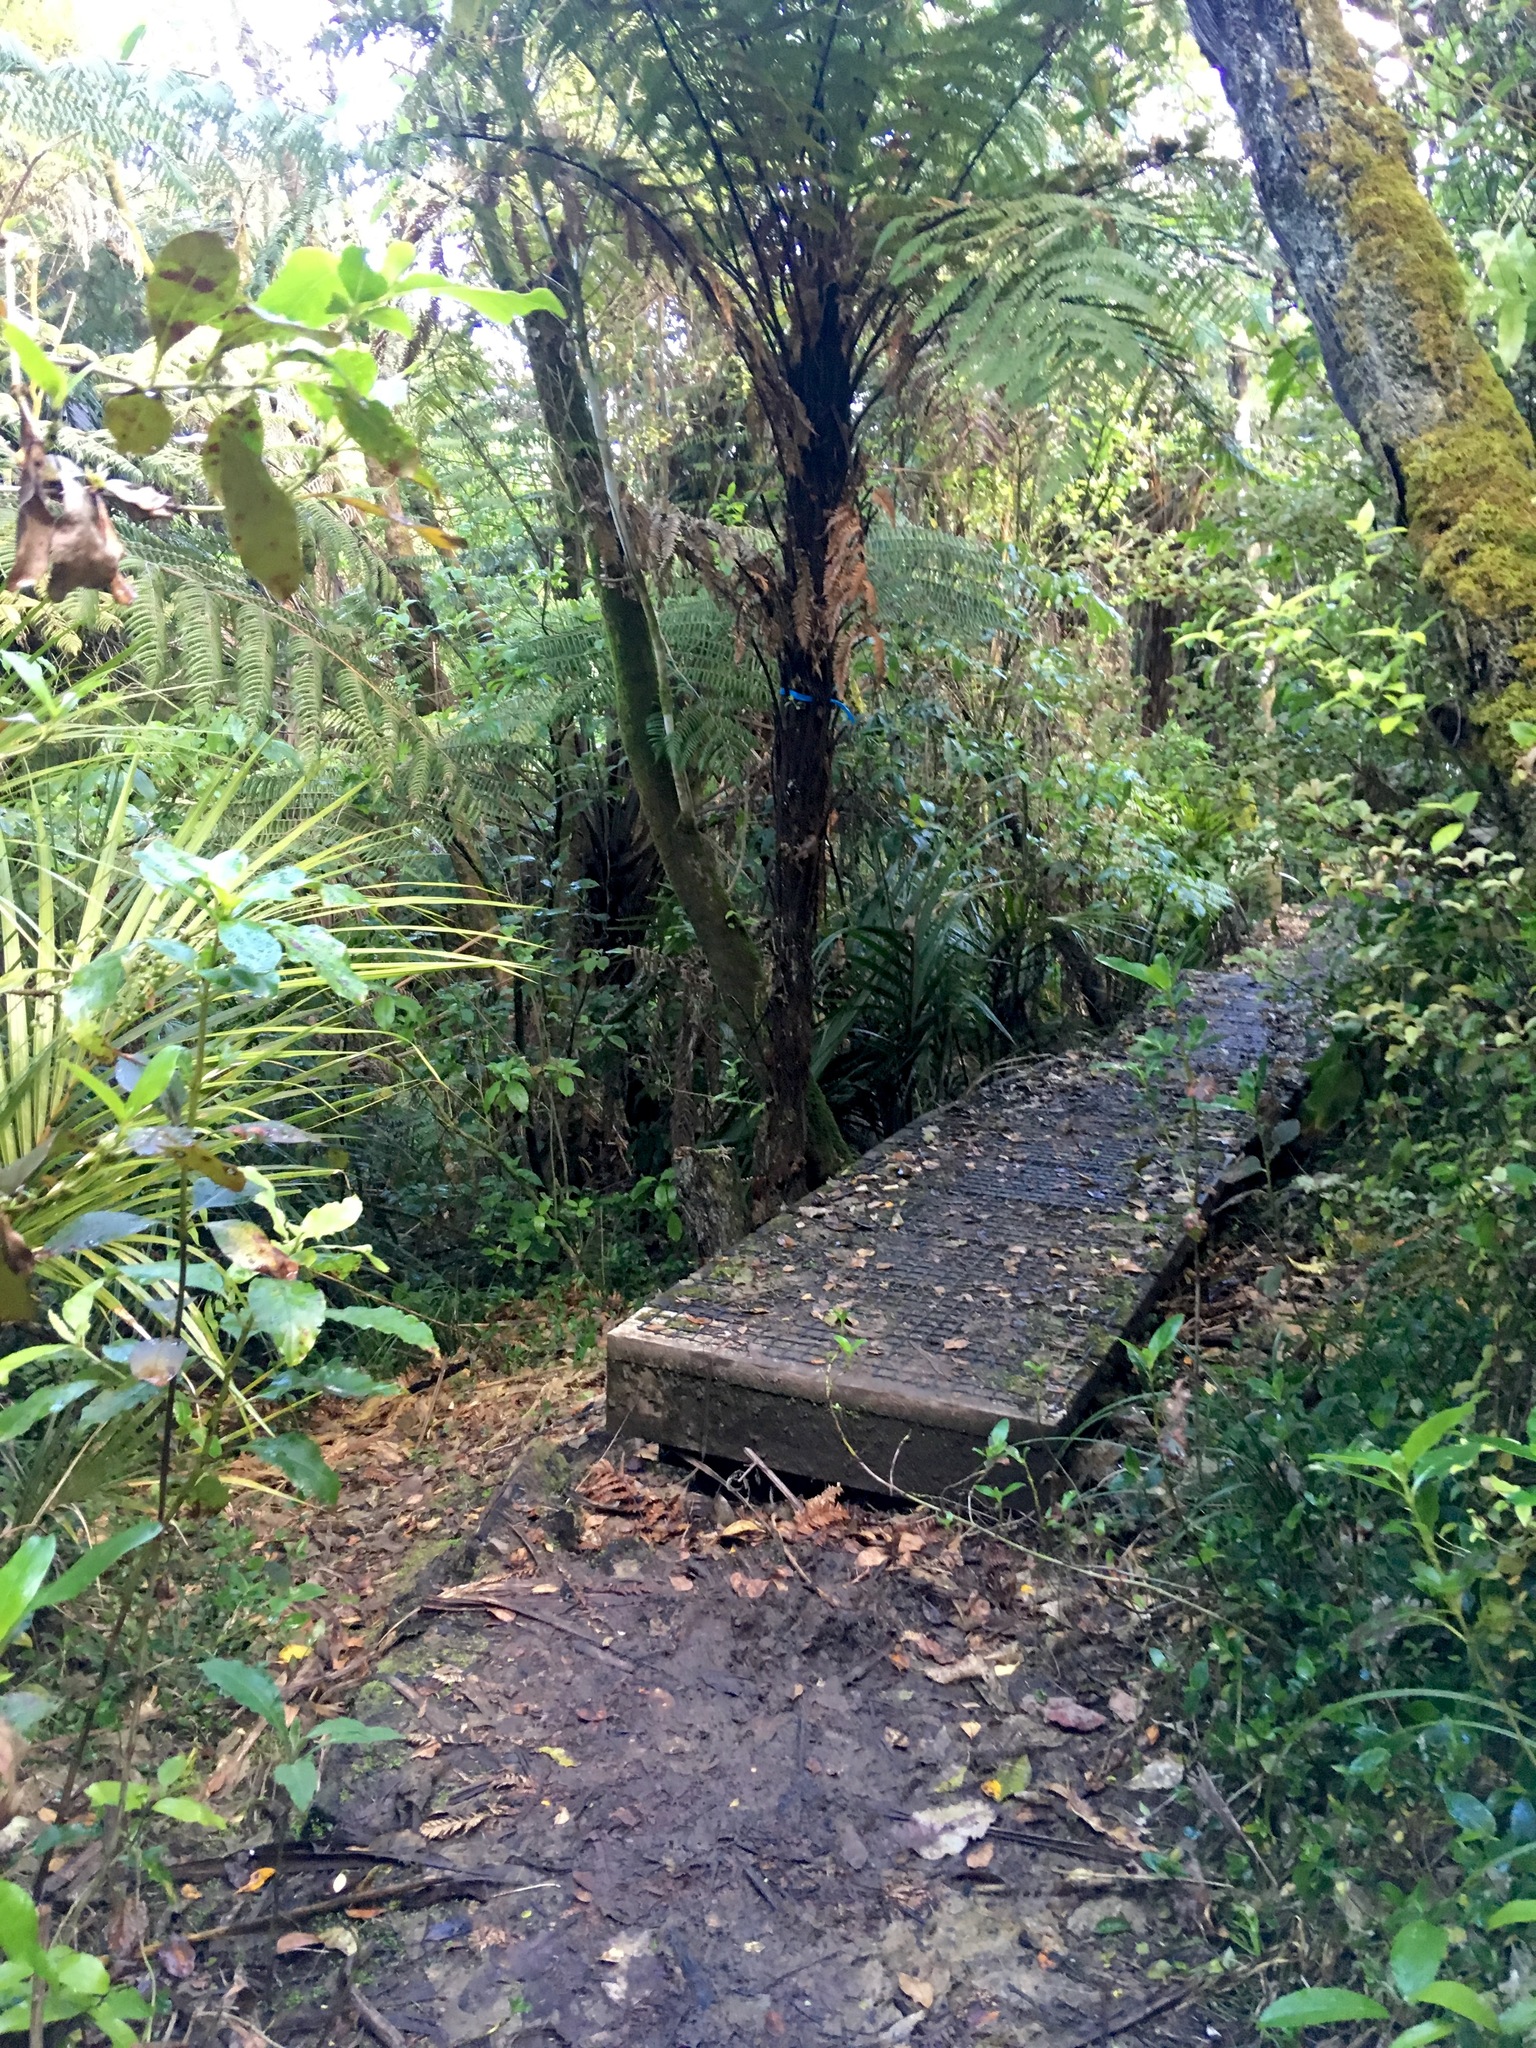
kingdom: Plantae
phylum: Tracheophyta
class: Magnoliopsida
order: Gentianales
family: Rubiaceae
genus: Coprosma
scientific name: Coprosma autumnalis
